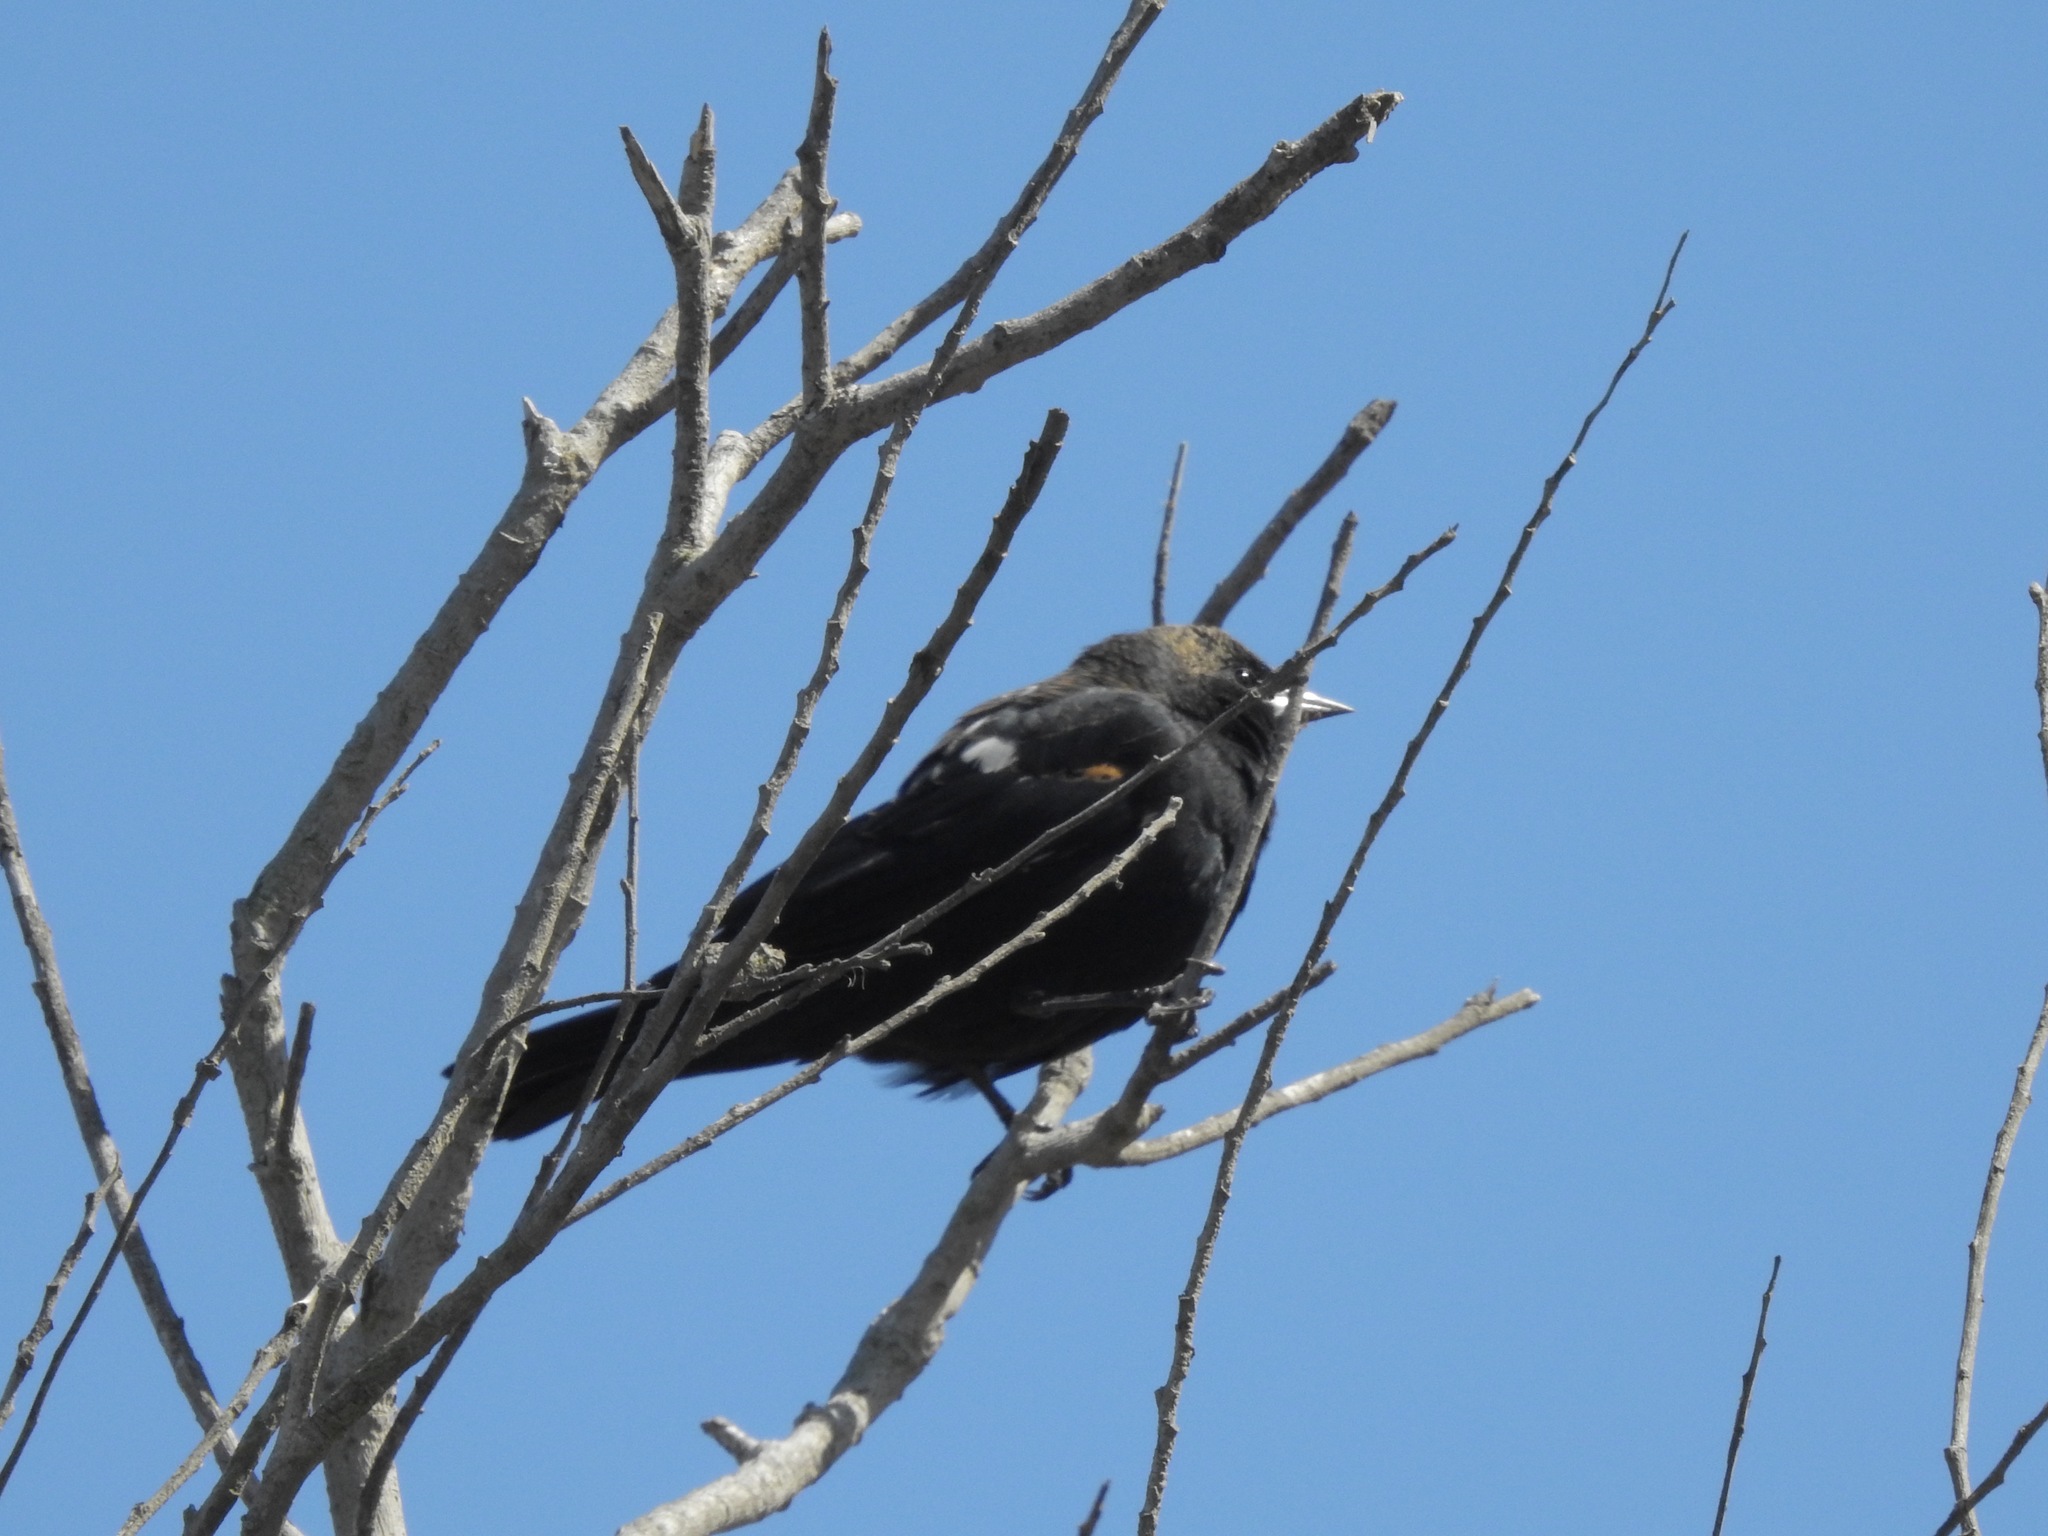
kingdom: Animalia
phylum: Chordata
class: Aves
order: Passeriformes
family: Icteridae
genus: Agelaius
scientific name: Agelaius phoeniceus
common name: Red-winged blackbird
